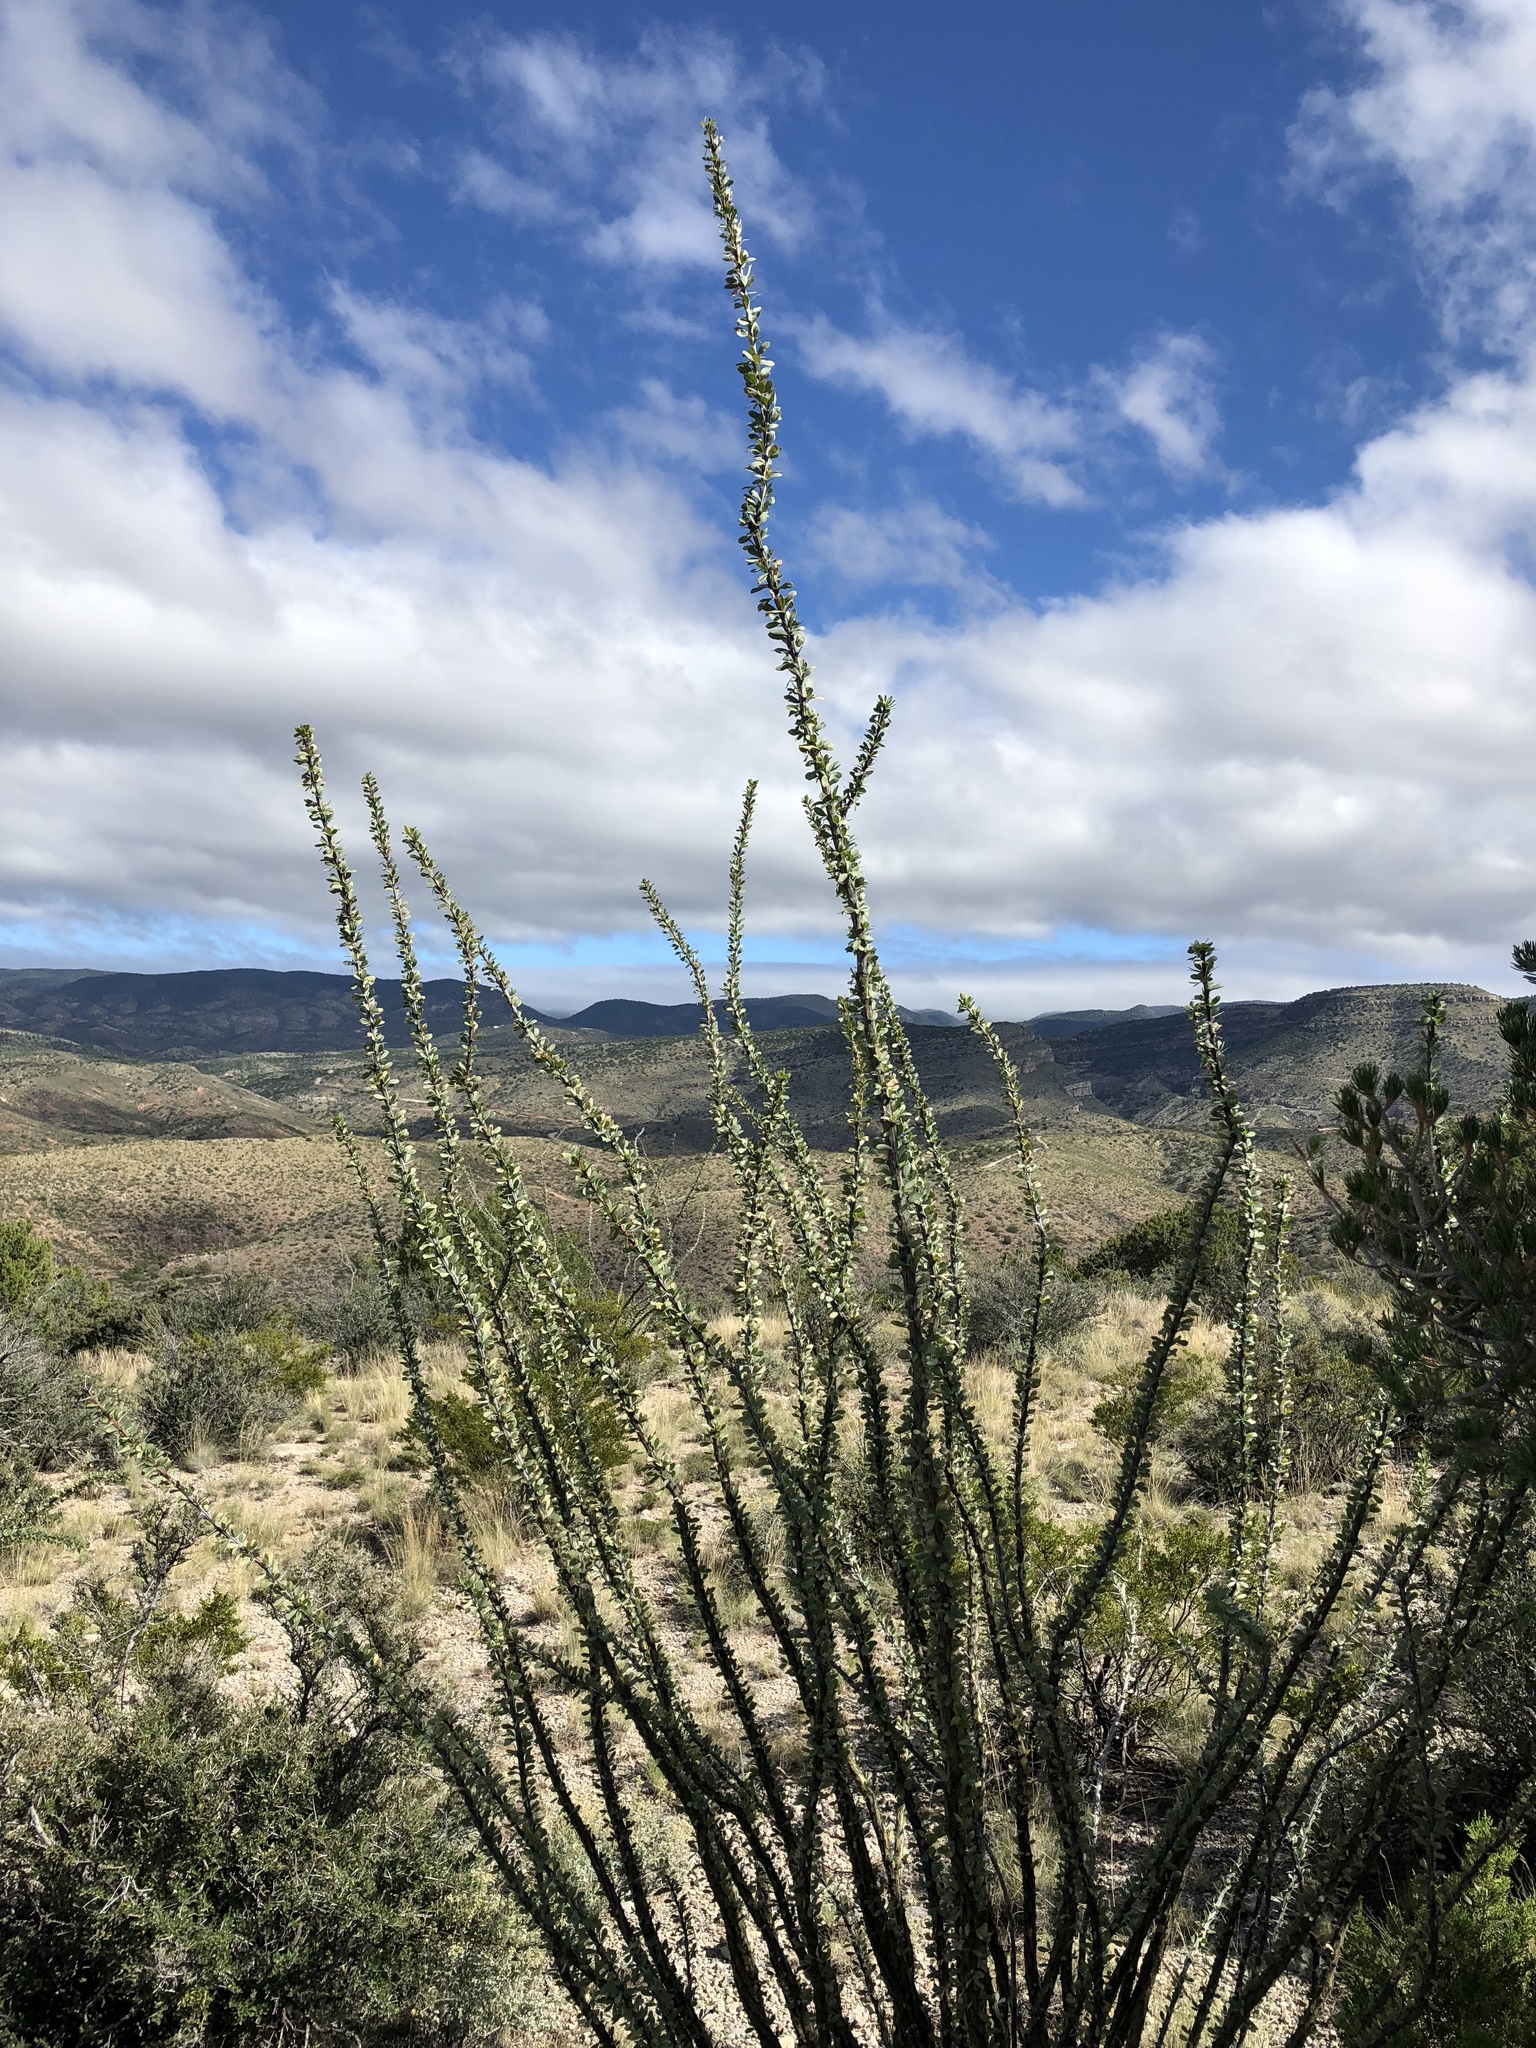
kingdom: Plantae
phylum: Tracheophyta
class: Magnoliopsida
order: Ericales
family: Fouquieriaceae
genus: Fouquieria
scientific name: Fouquieria splendens
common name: Vine-cactus
